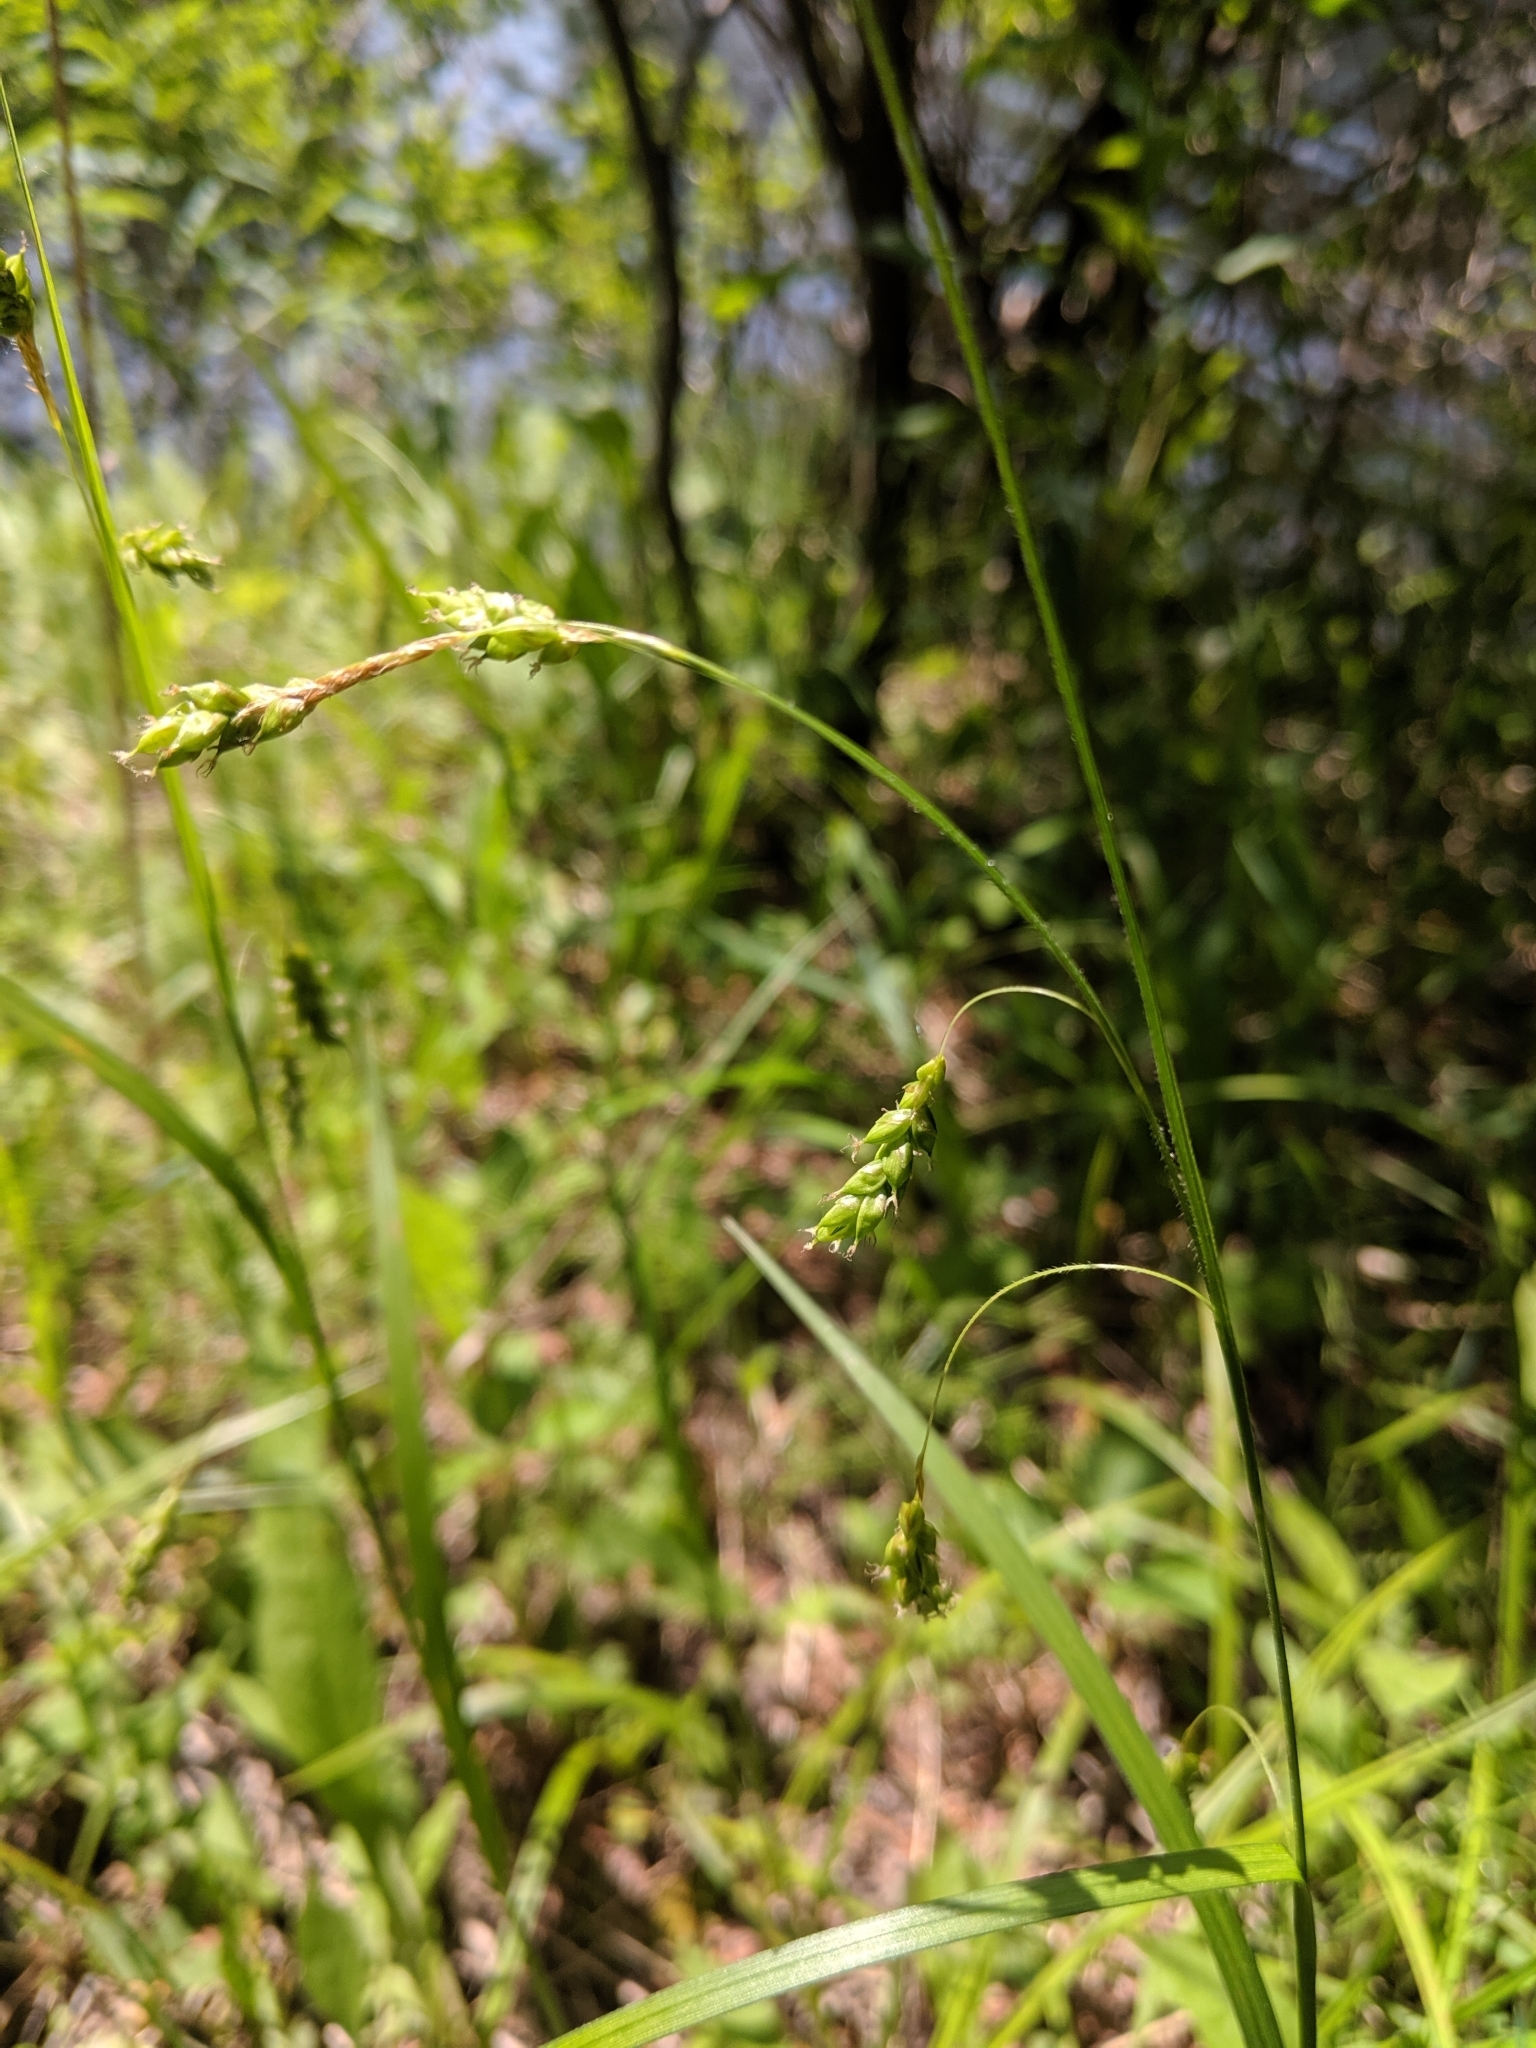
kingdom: Plantae
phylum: Tracheophyta
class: Liliopsida
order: Poales
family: Cyperaceae
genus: Carex
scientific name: Carex formosa
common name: Awnless graceful sedge
